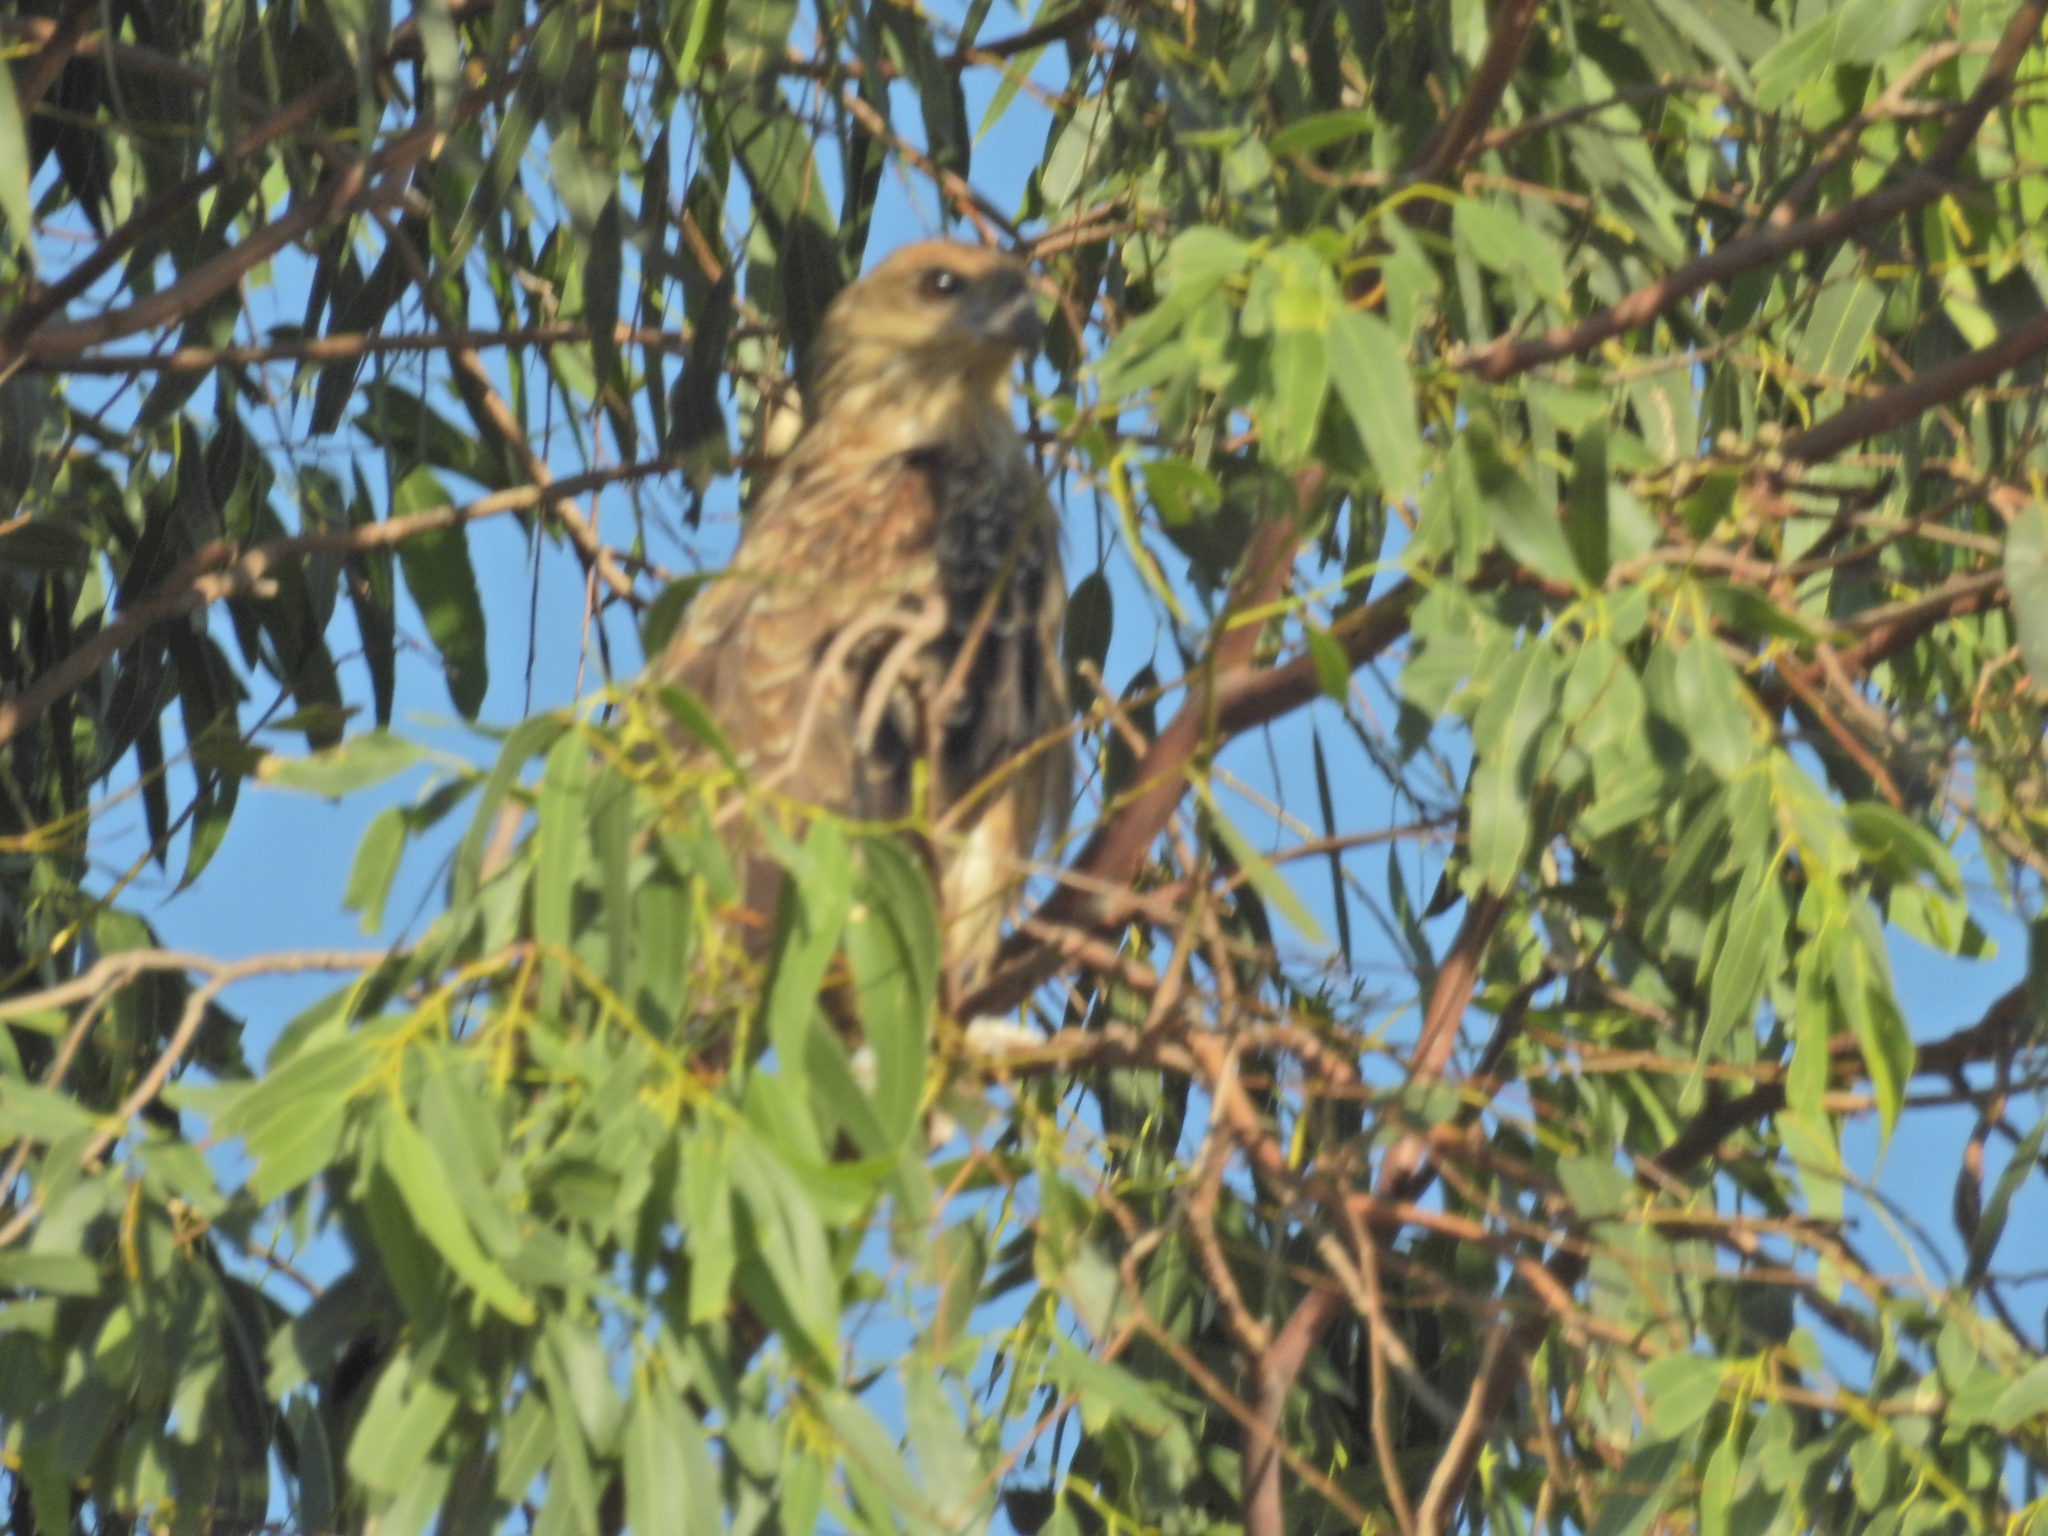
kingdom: Animalia
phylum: Chordata
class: Aves
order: Accipitriformes
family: Accipitridae
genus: Haliastur
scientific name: Haliastur sphenurus
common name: Whistling kite
